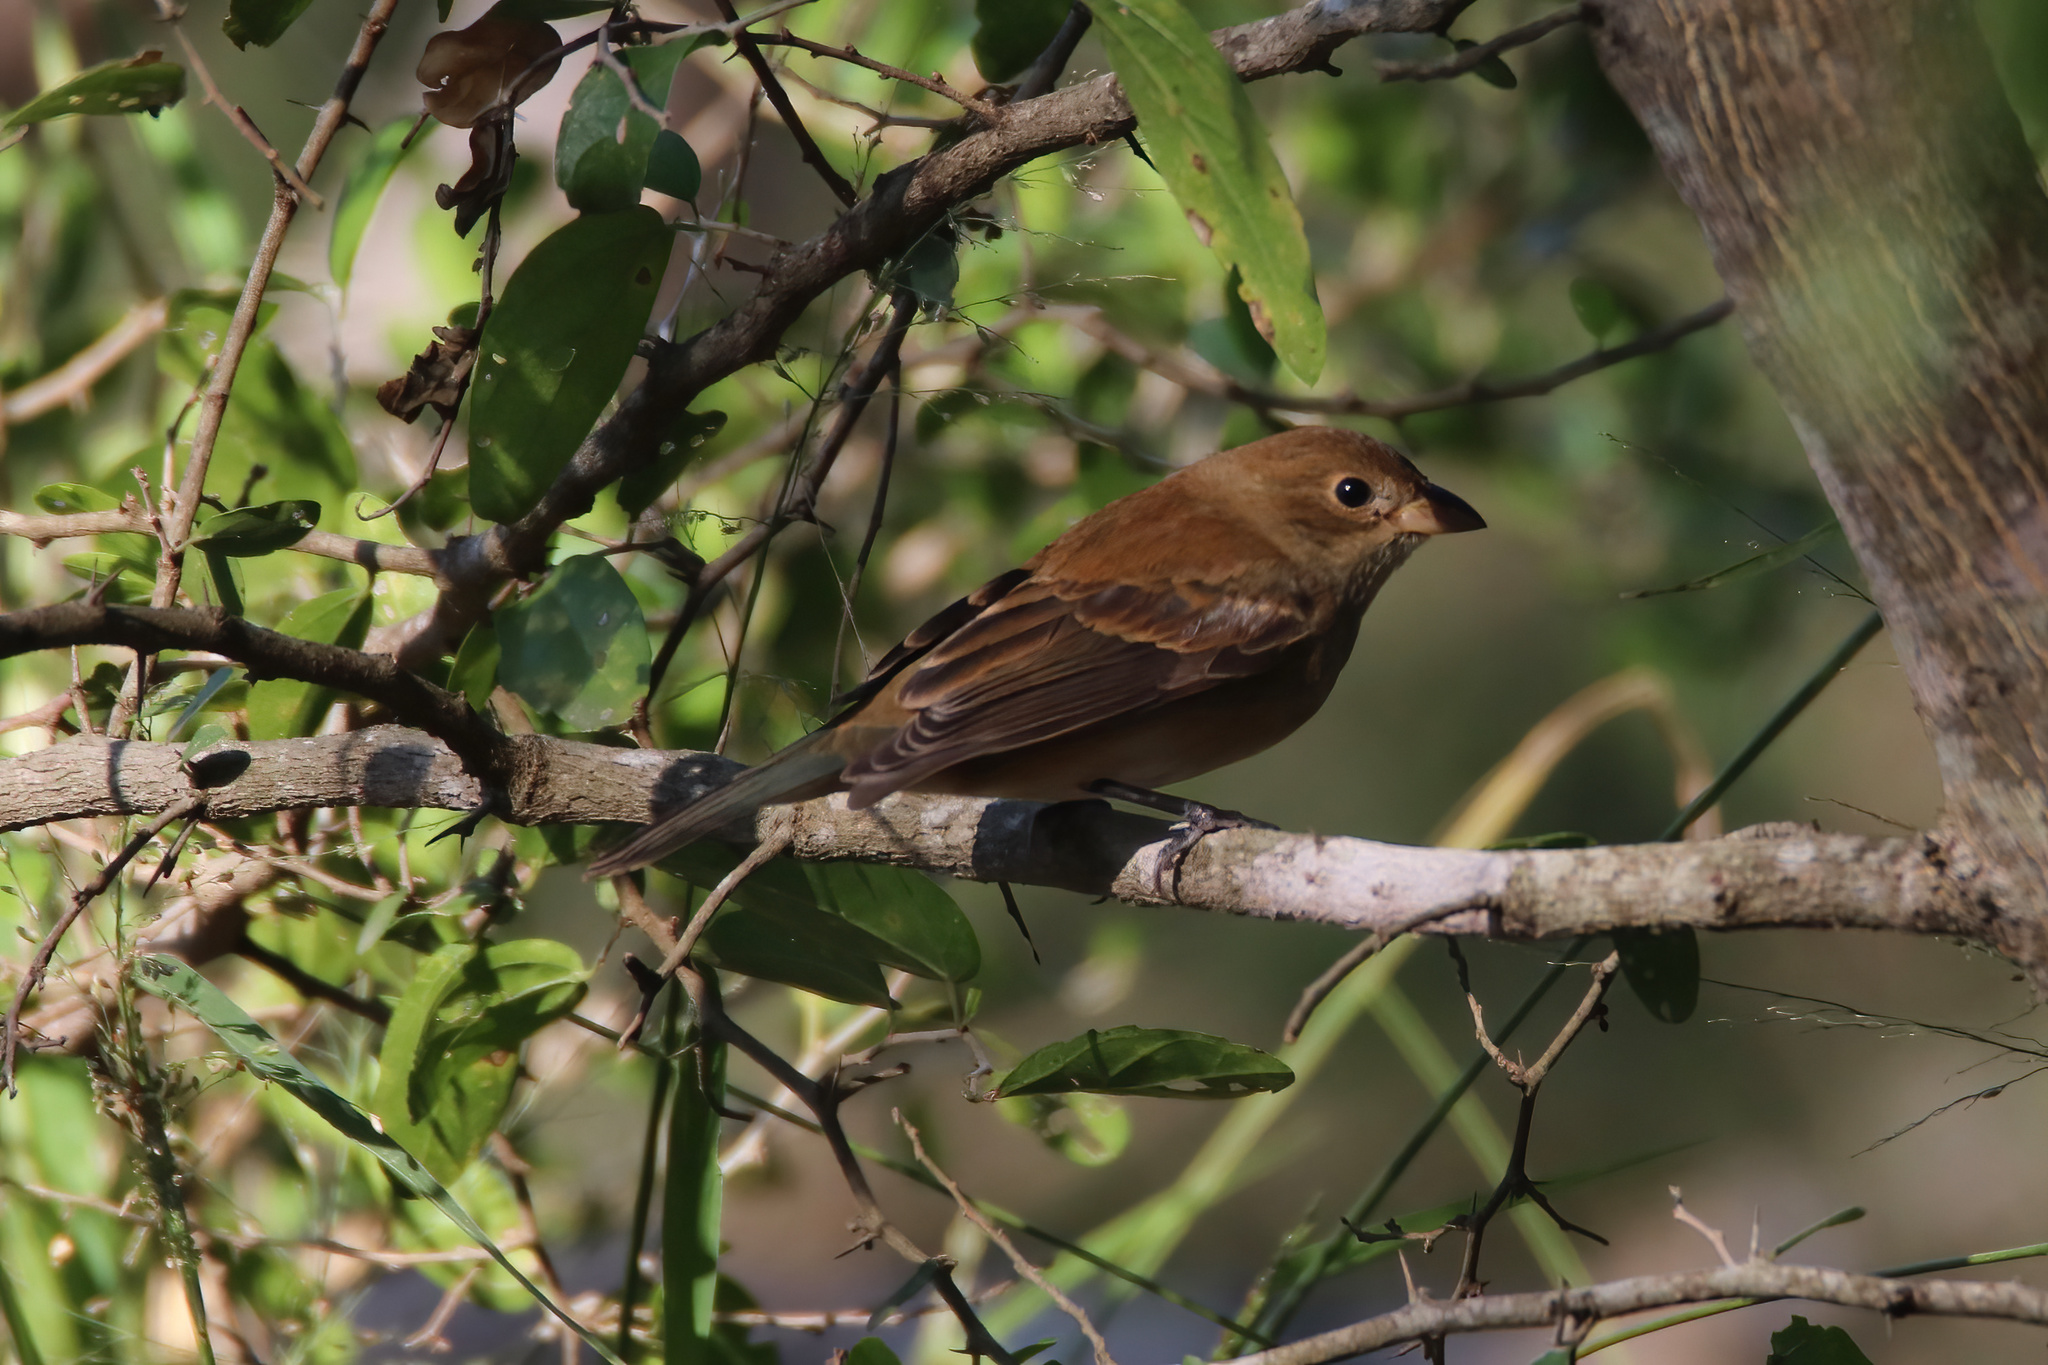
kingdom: Animalia
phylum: Chordata
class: Aves
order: Passeriformes
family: Cardinalidae
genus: Passerina
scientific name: Passerina cyanea
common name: Indigo bunting
